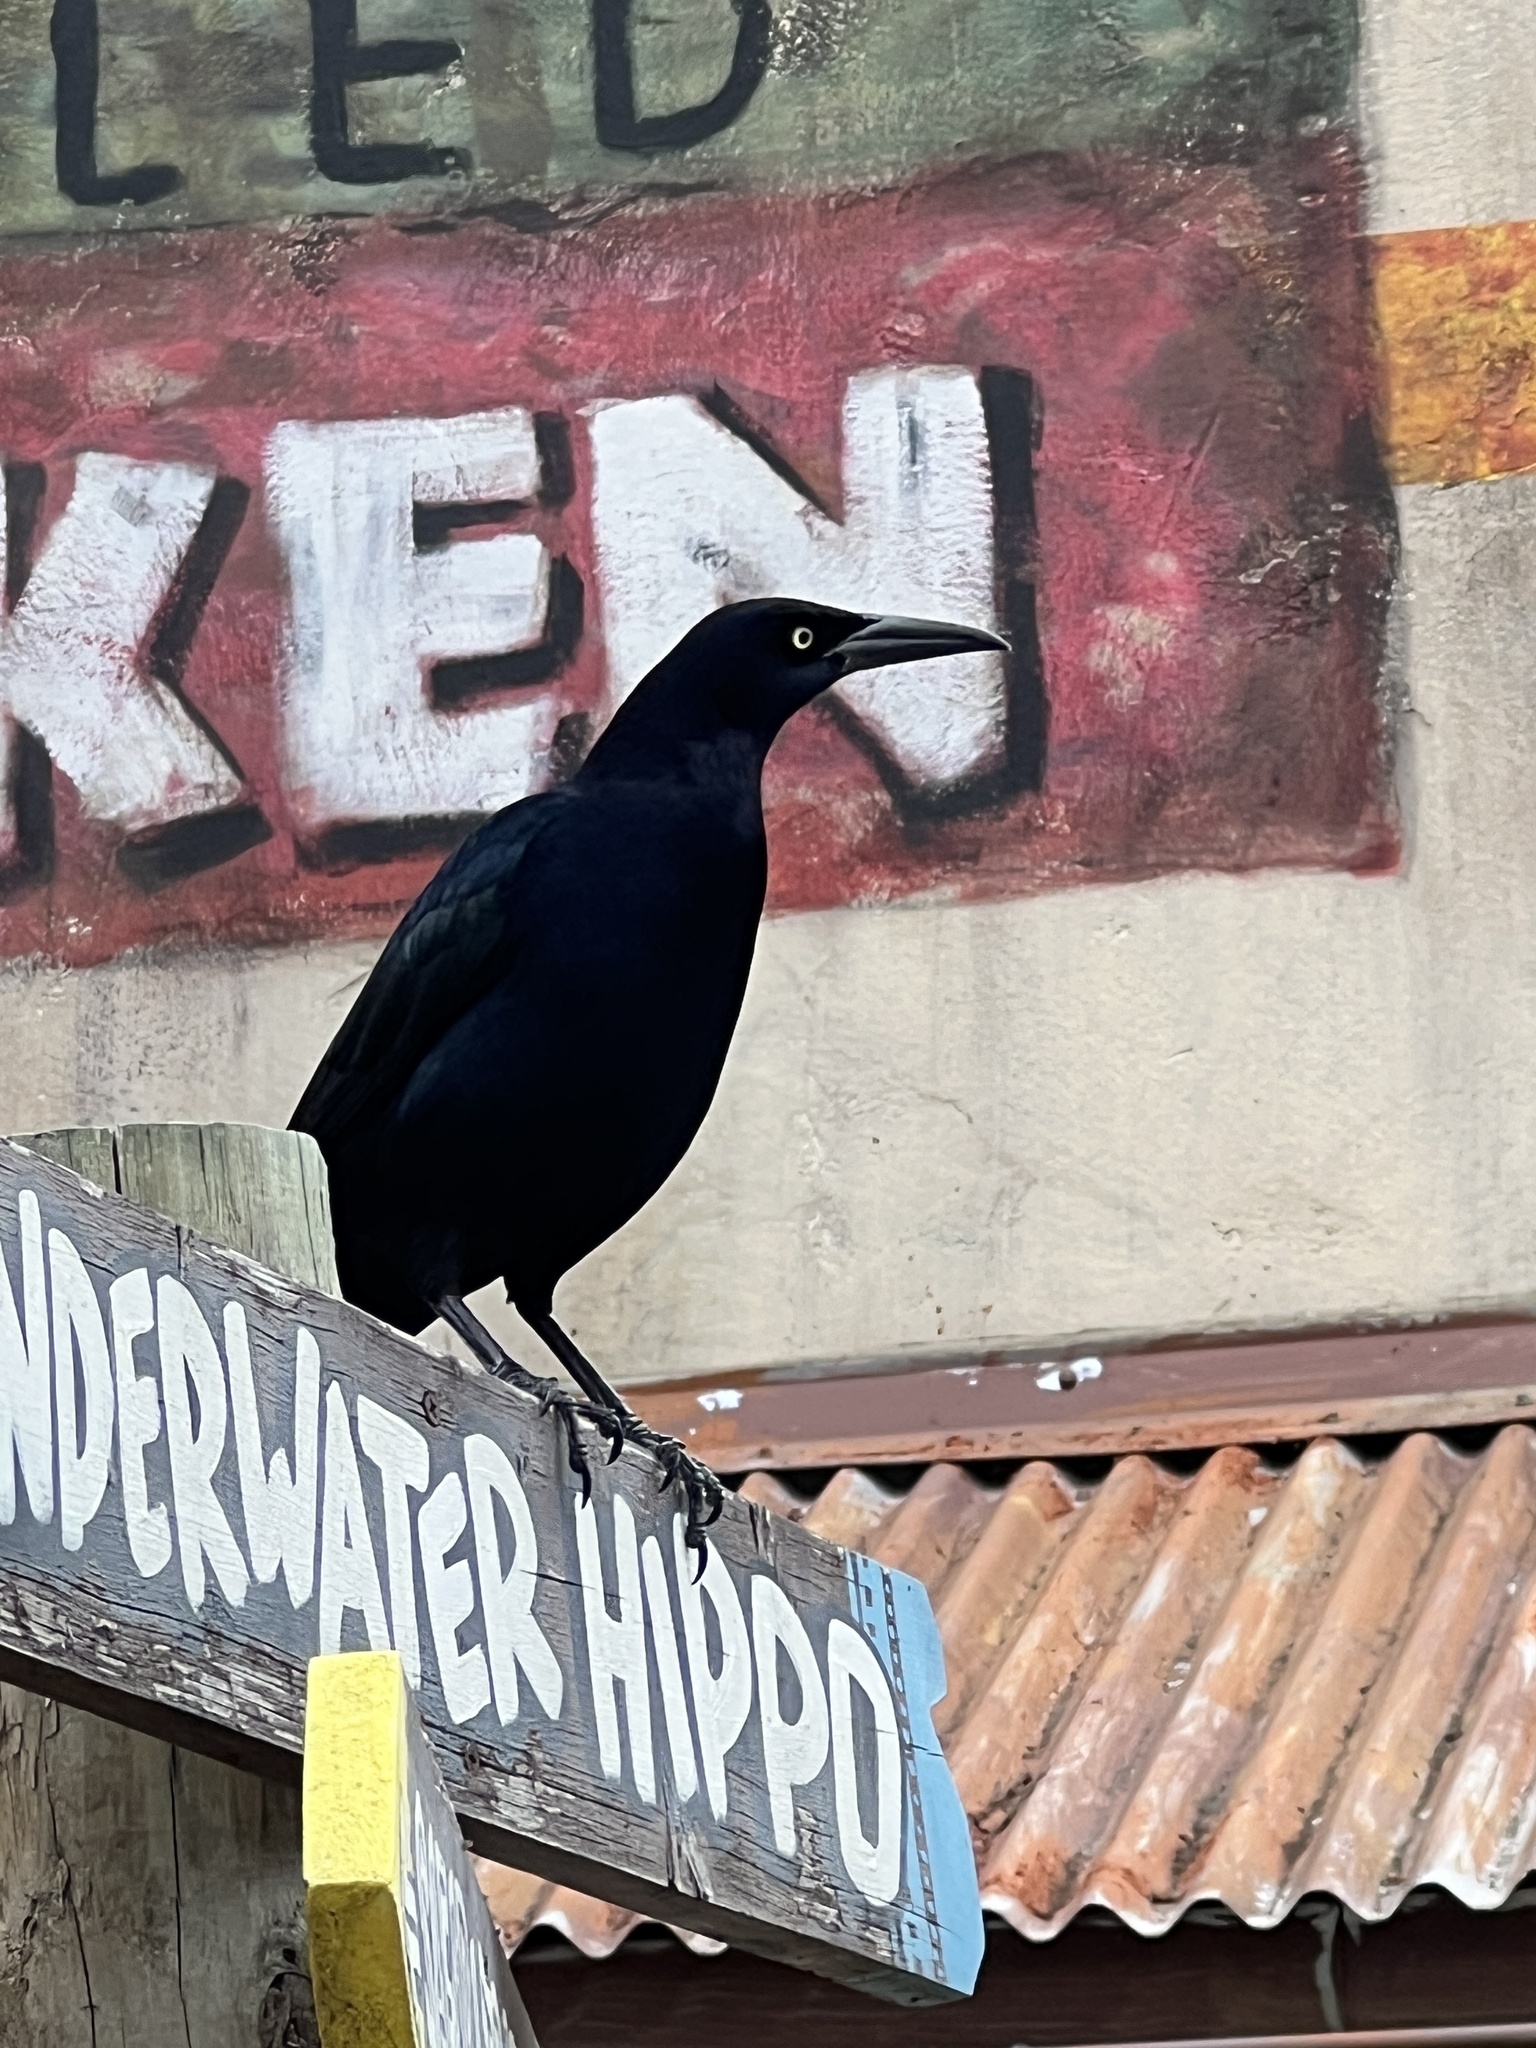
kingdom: Animalia
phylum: Chordata
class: Aves
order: Passeriformes
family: Icteridae
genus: Quiscalus
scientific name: Quiscalus mexicanus
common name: Great-tailed grackle
